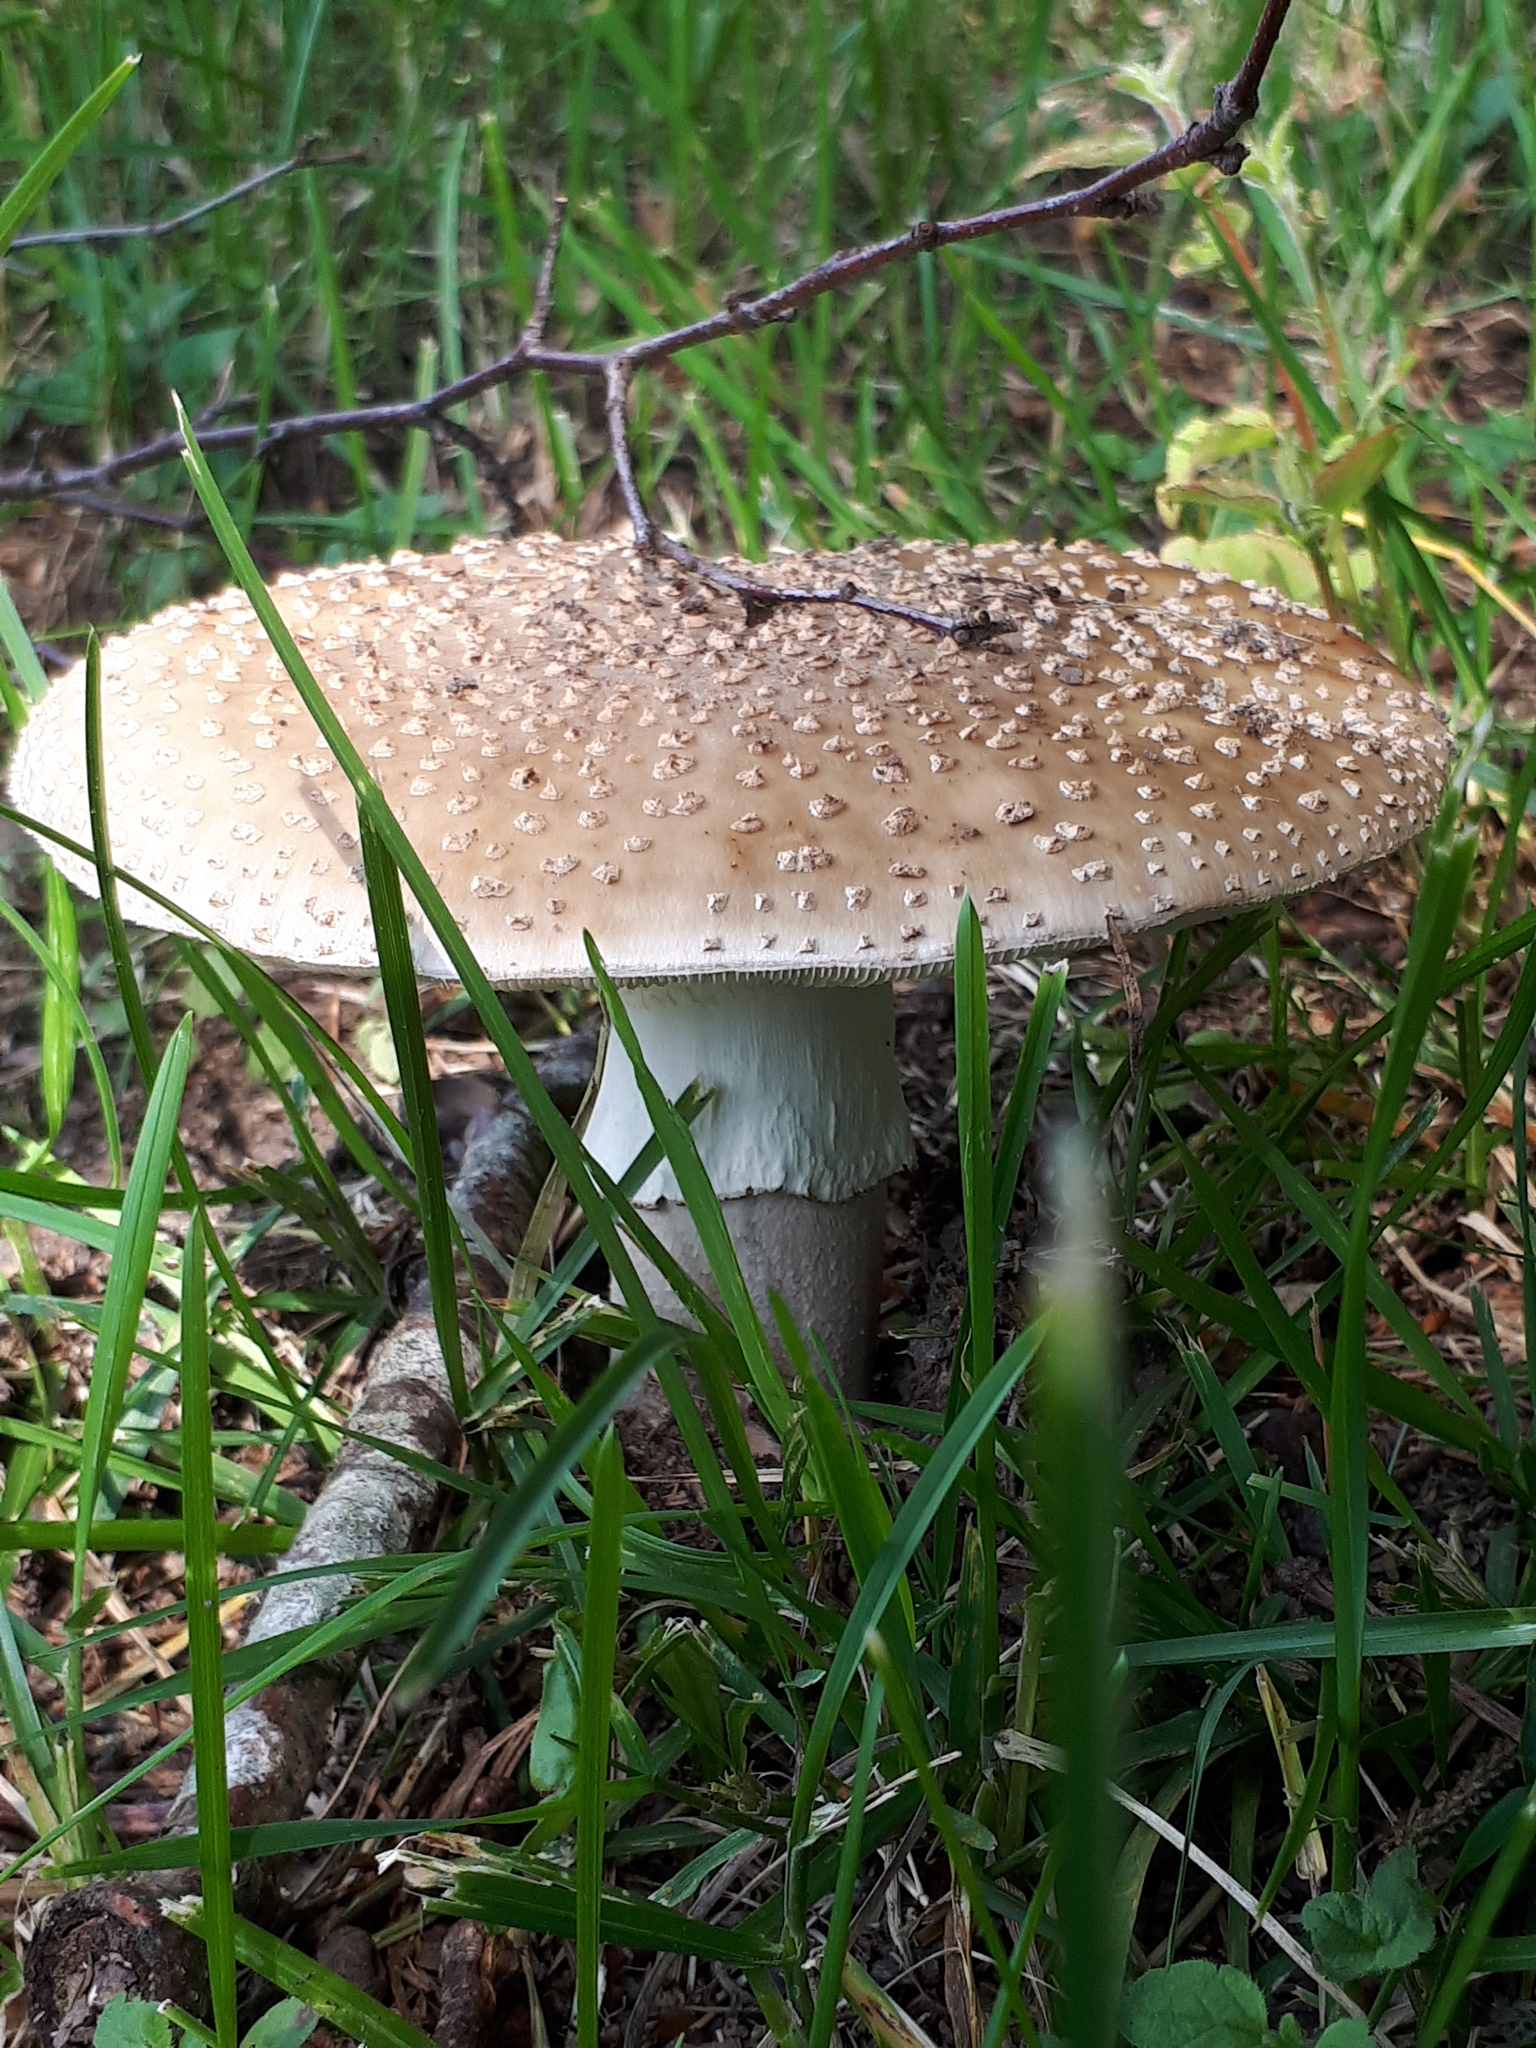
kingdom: Fungi
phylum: Basidiomycota
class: Agaricomycetes
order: Agaricales
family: Amanitaceae
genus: Amanita
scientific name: Amanita rubescens
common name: Blusher
